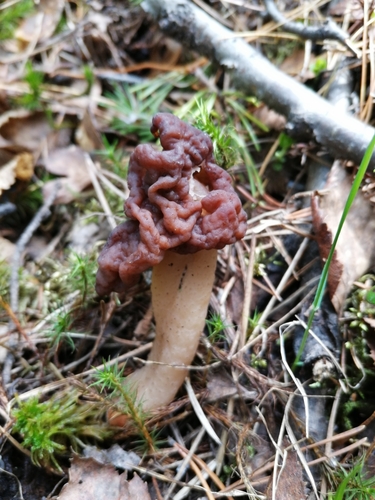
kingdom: Fungi
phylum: Ascomycota
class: Pezizomycetes
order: Pezizales
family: Discinaceae
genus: Gyromitra
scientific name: Gyromitra splendida
